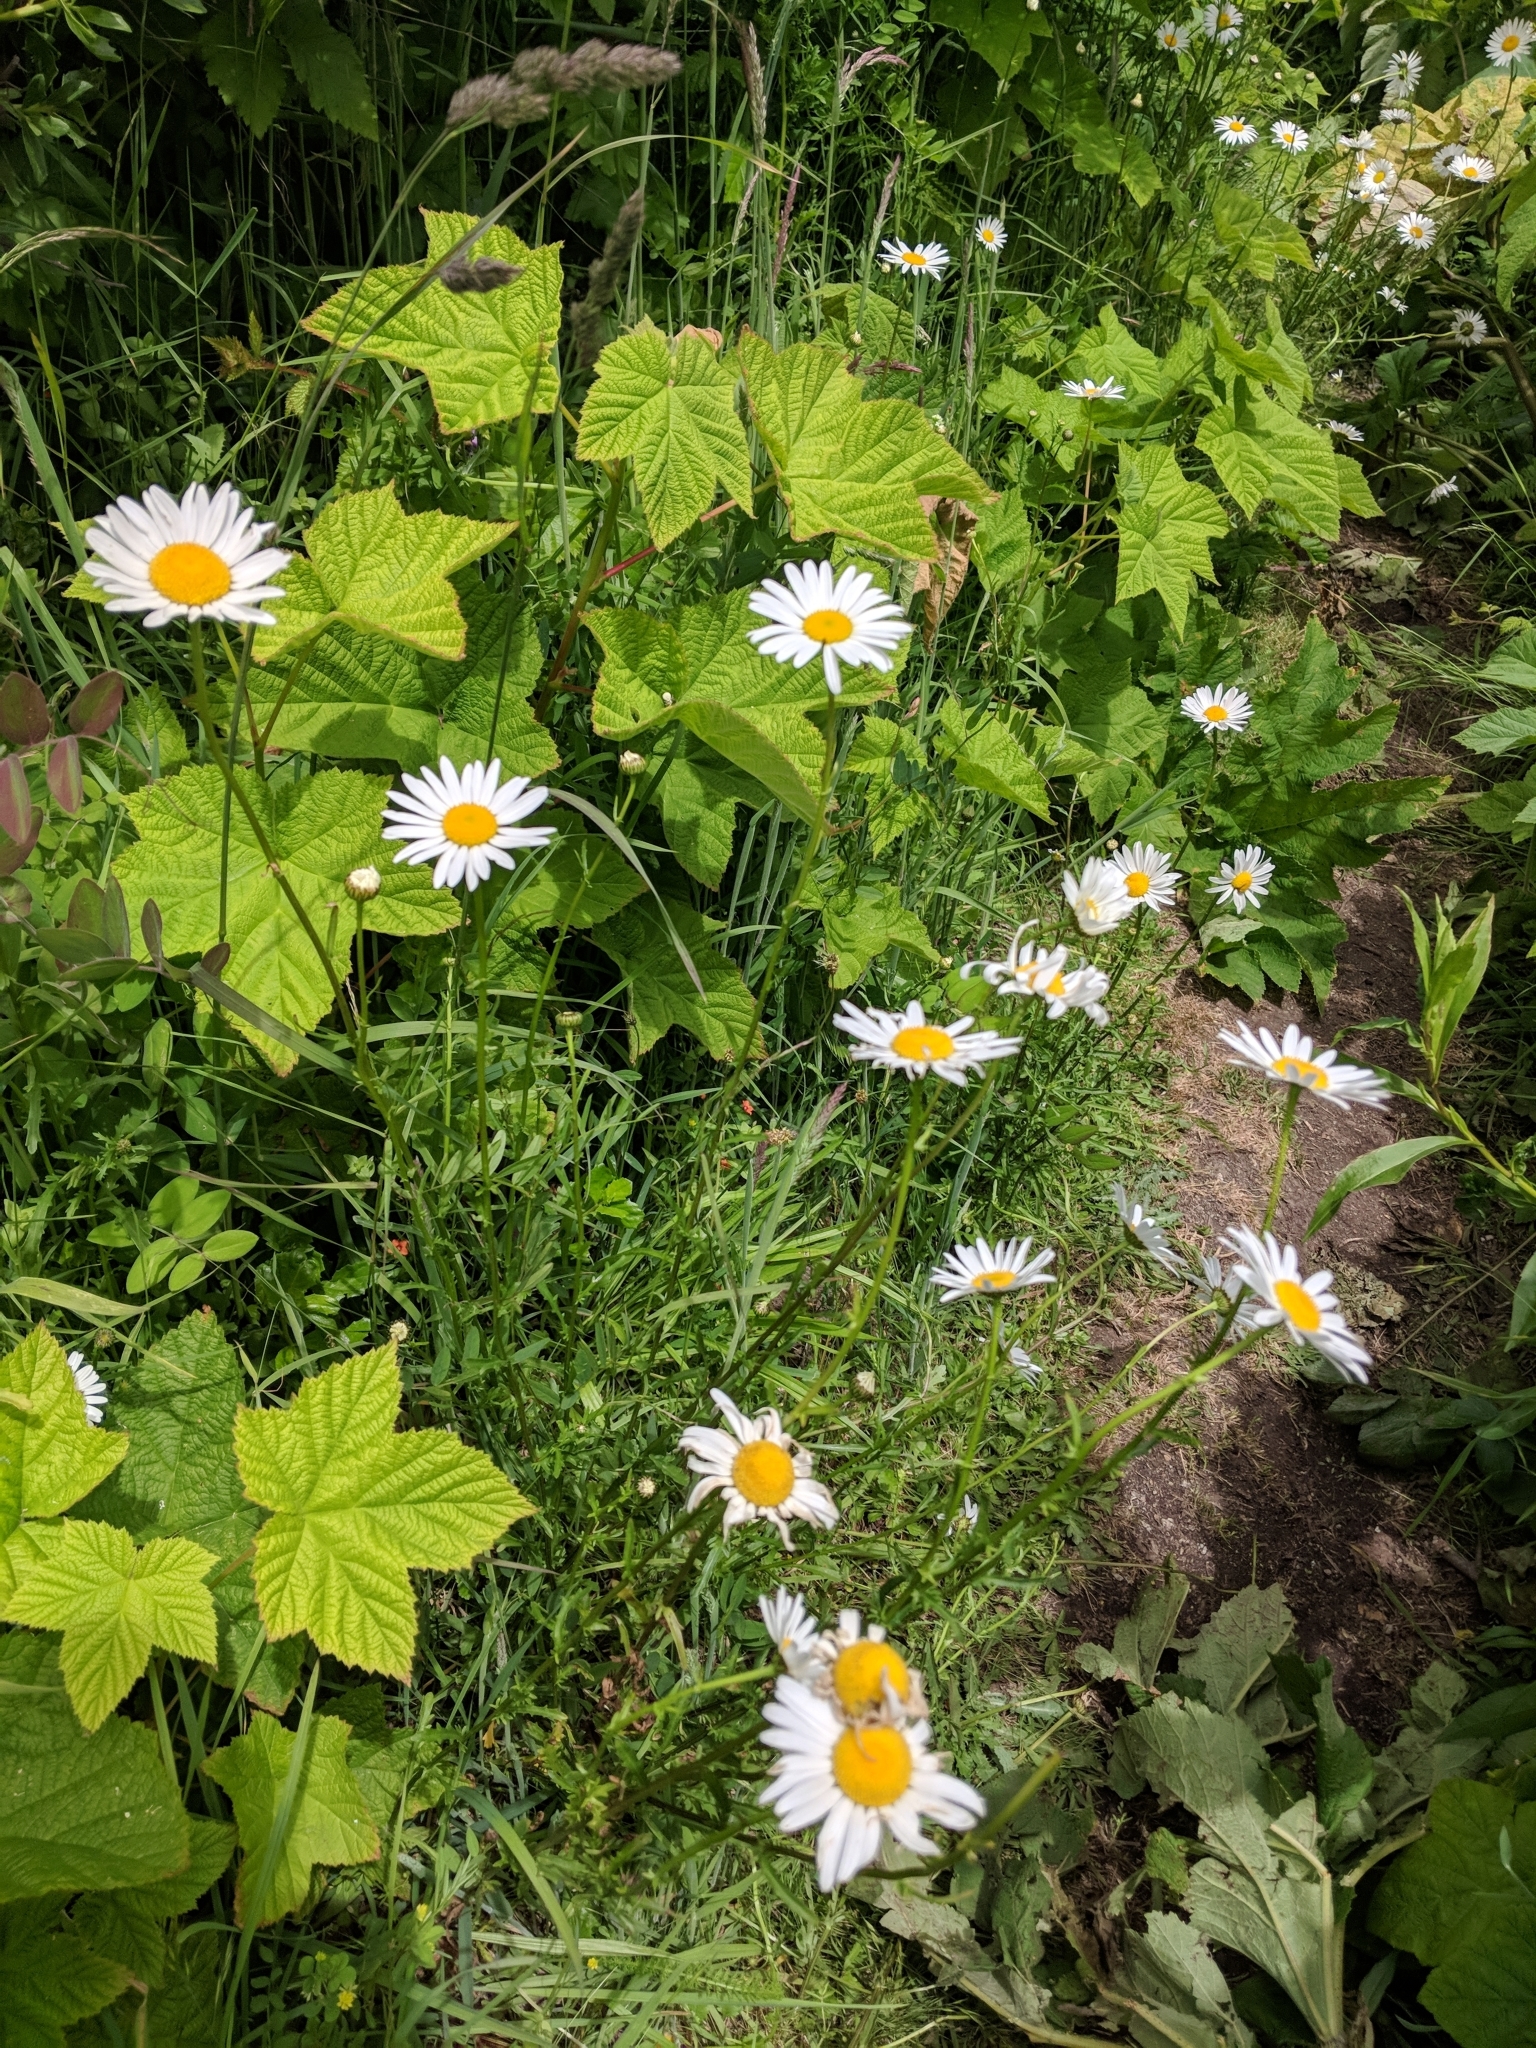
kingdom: Plantae
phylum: Tracheophyta
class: Magnoliopsida
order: Asterales
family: Asteraceae
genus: Leucanthemum
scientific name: Leucanthemum vulgare
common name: Oxeye daisy
